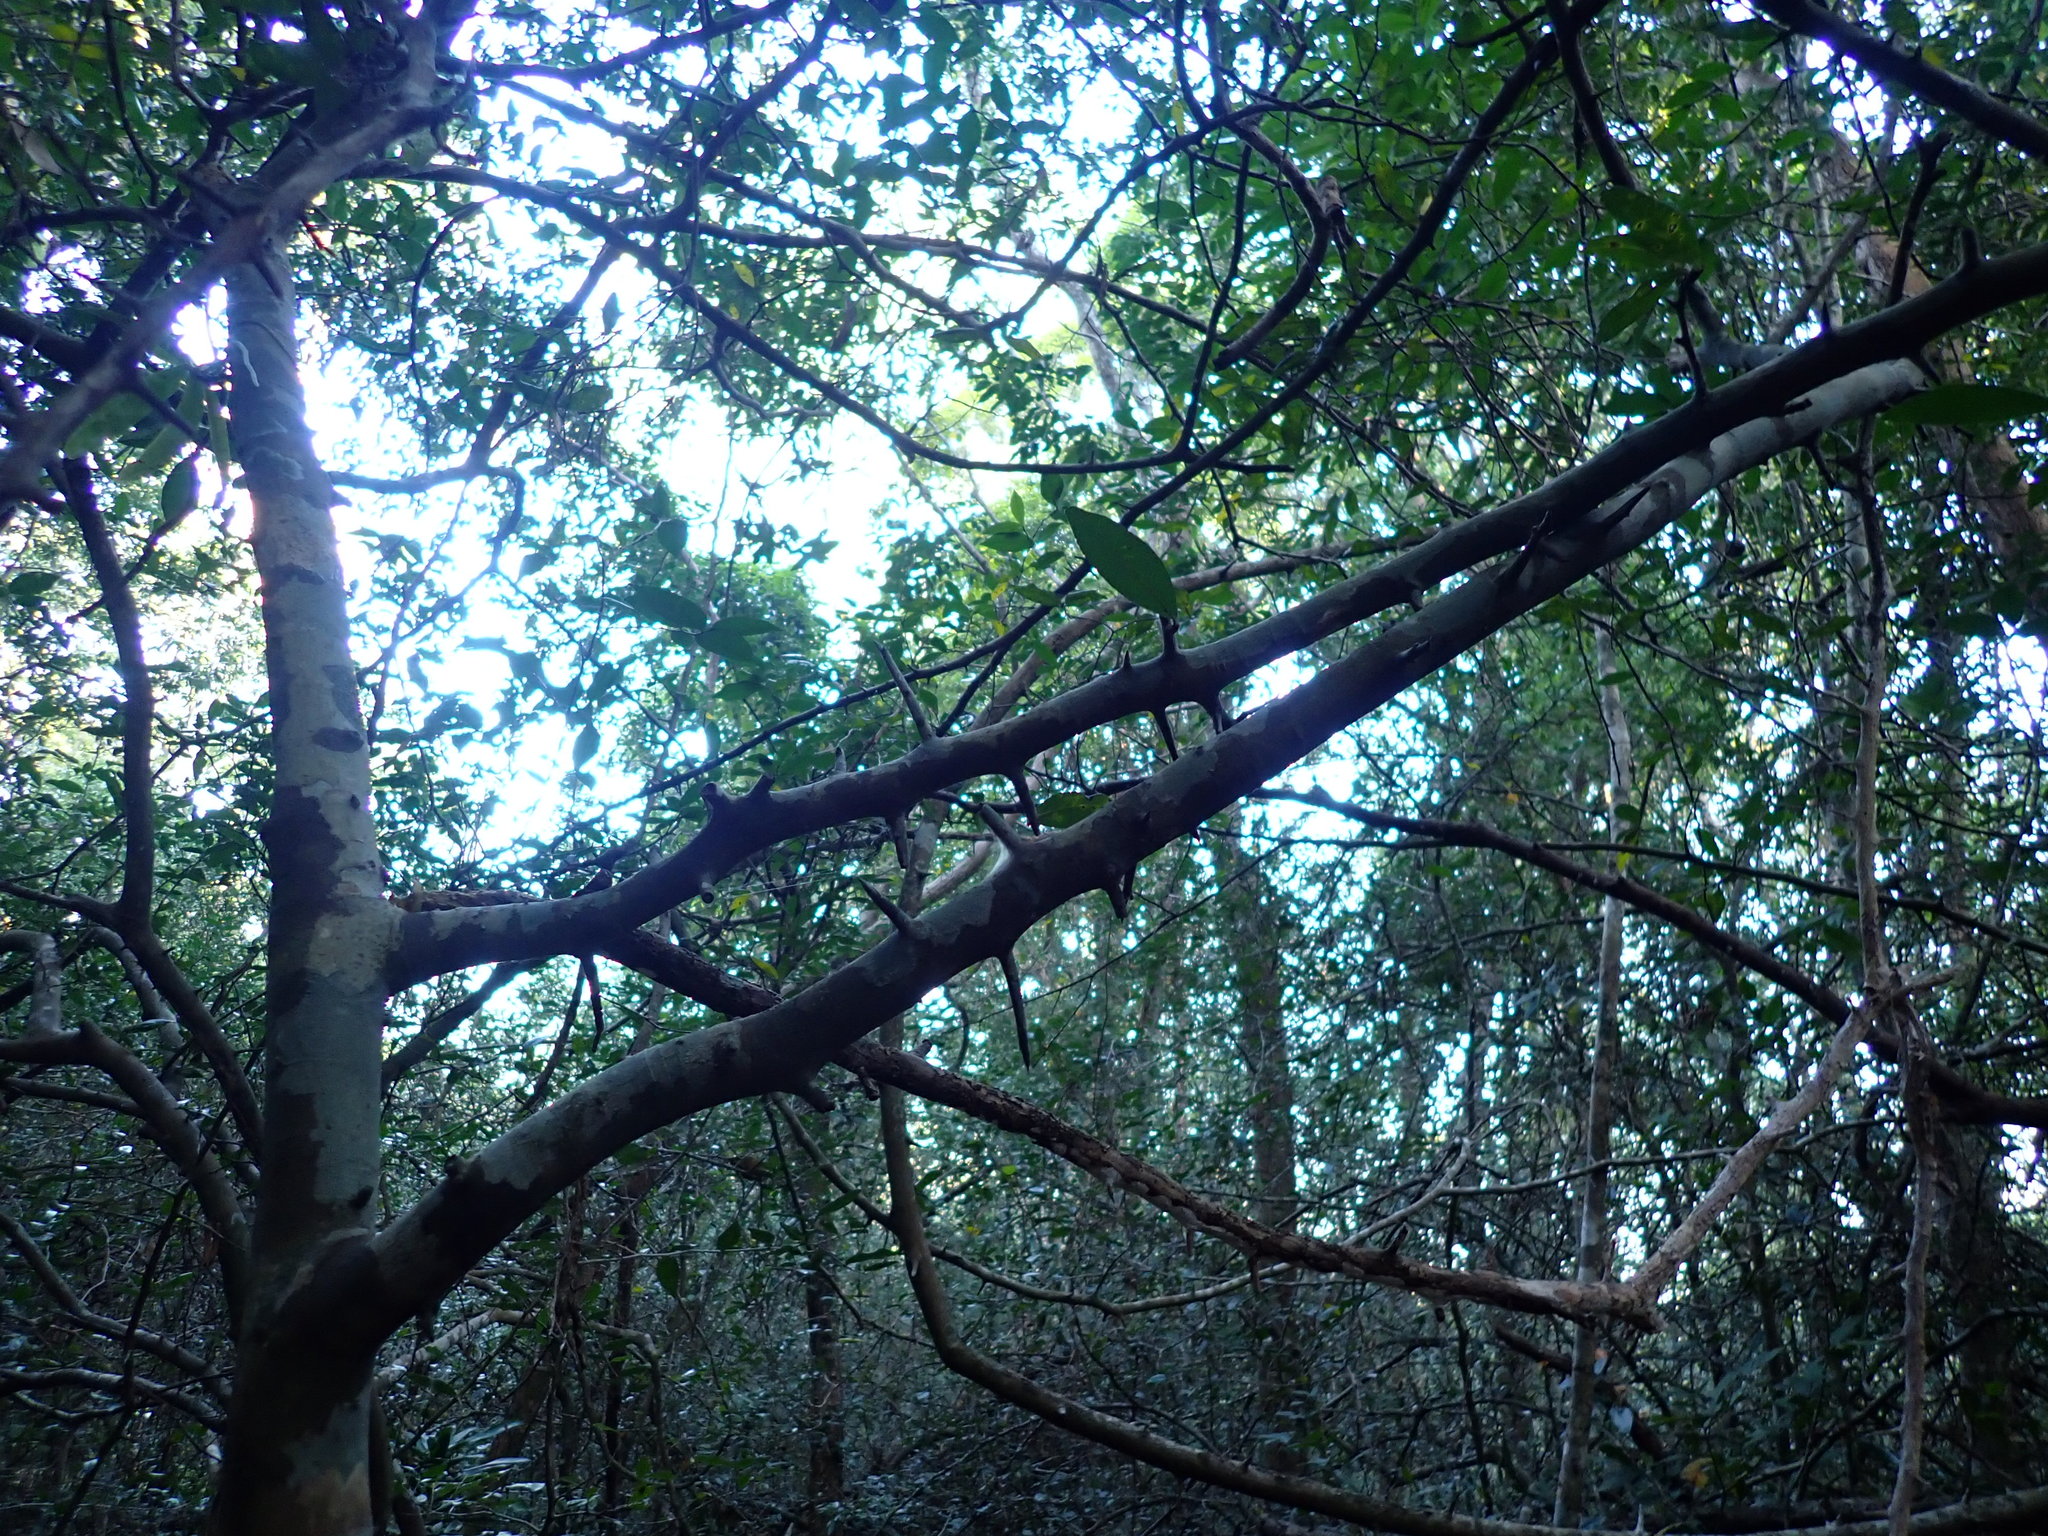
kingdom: Plantae
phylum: Tracheophyta
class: Magnoliopsida
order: Rosales
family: Moraceae
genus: Taxotrophis
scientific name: Taxotrophis ilicifolia
